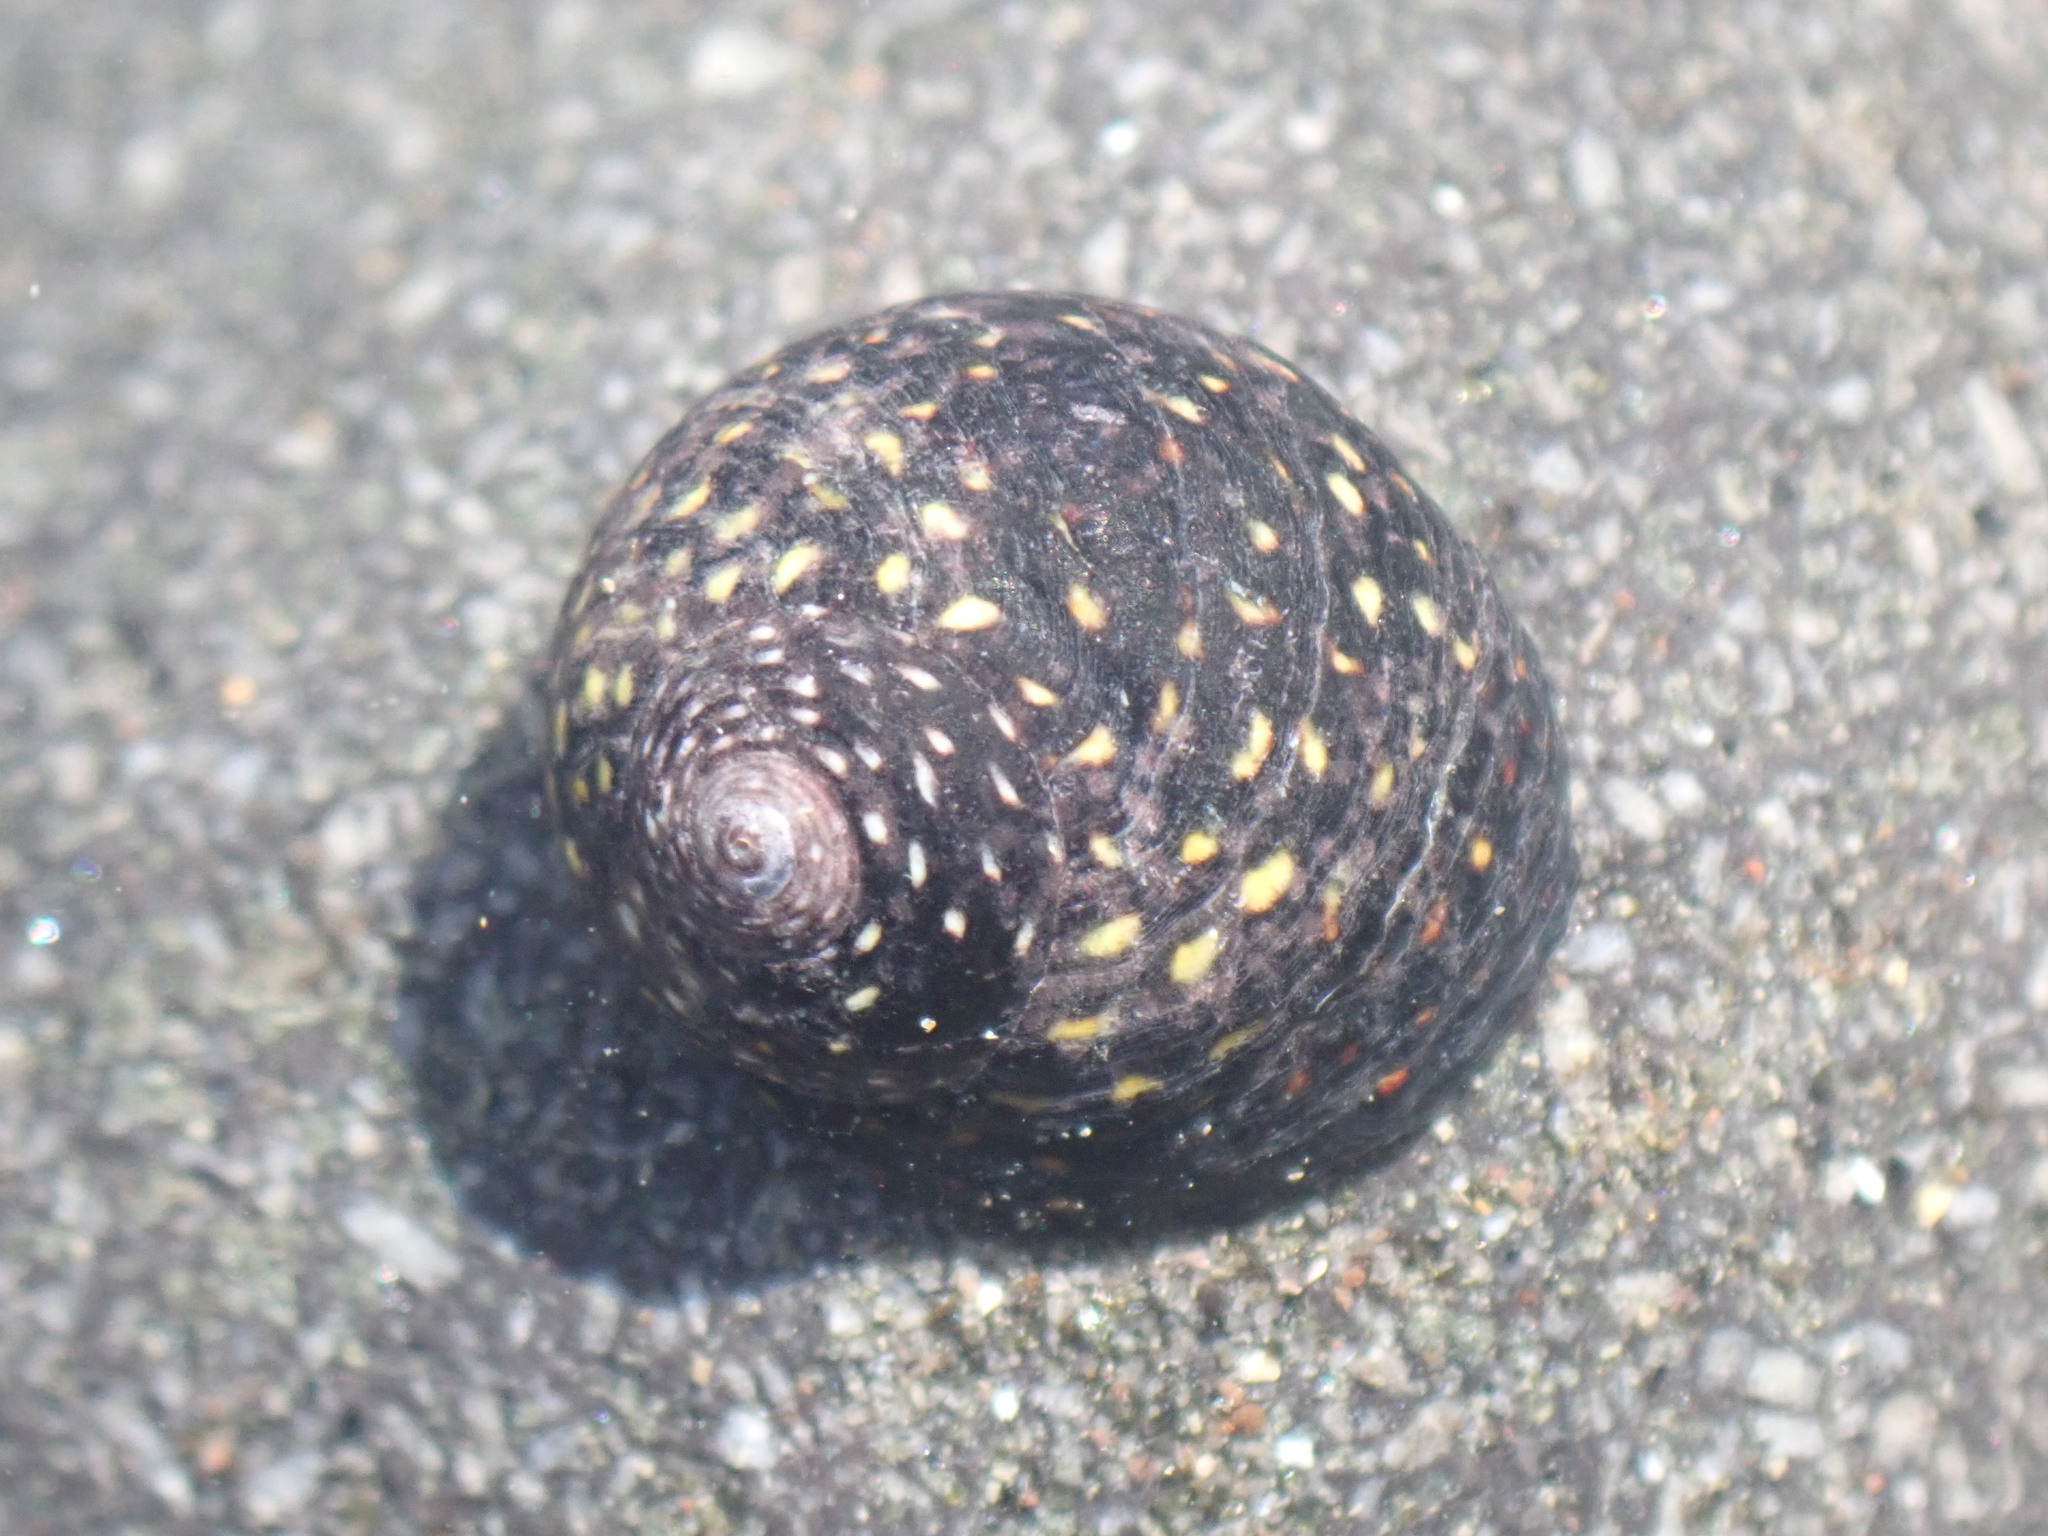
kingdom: Animalia
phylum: Mollusca
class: Gastropoda
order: Trochida
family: Trochidae
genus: Diloma
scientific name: Diloma aridum
